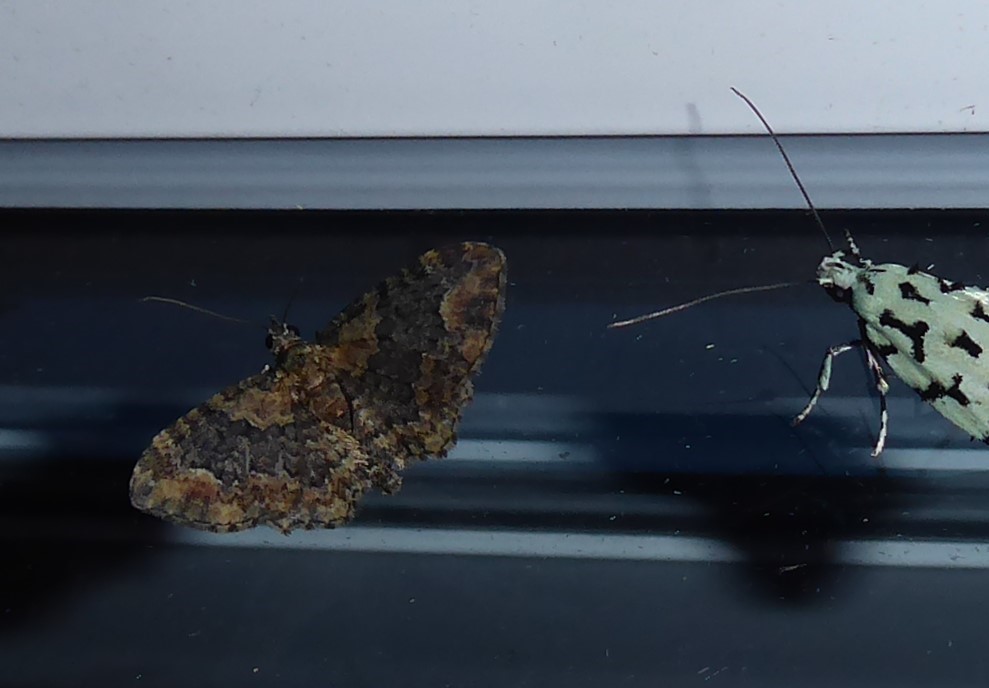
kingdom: Animalia
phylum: Arthropoda
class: Insecta
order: Lepidoptera
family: Geometridae
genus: Pasiphilodes
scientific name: Pasiphilodes testulata
